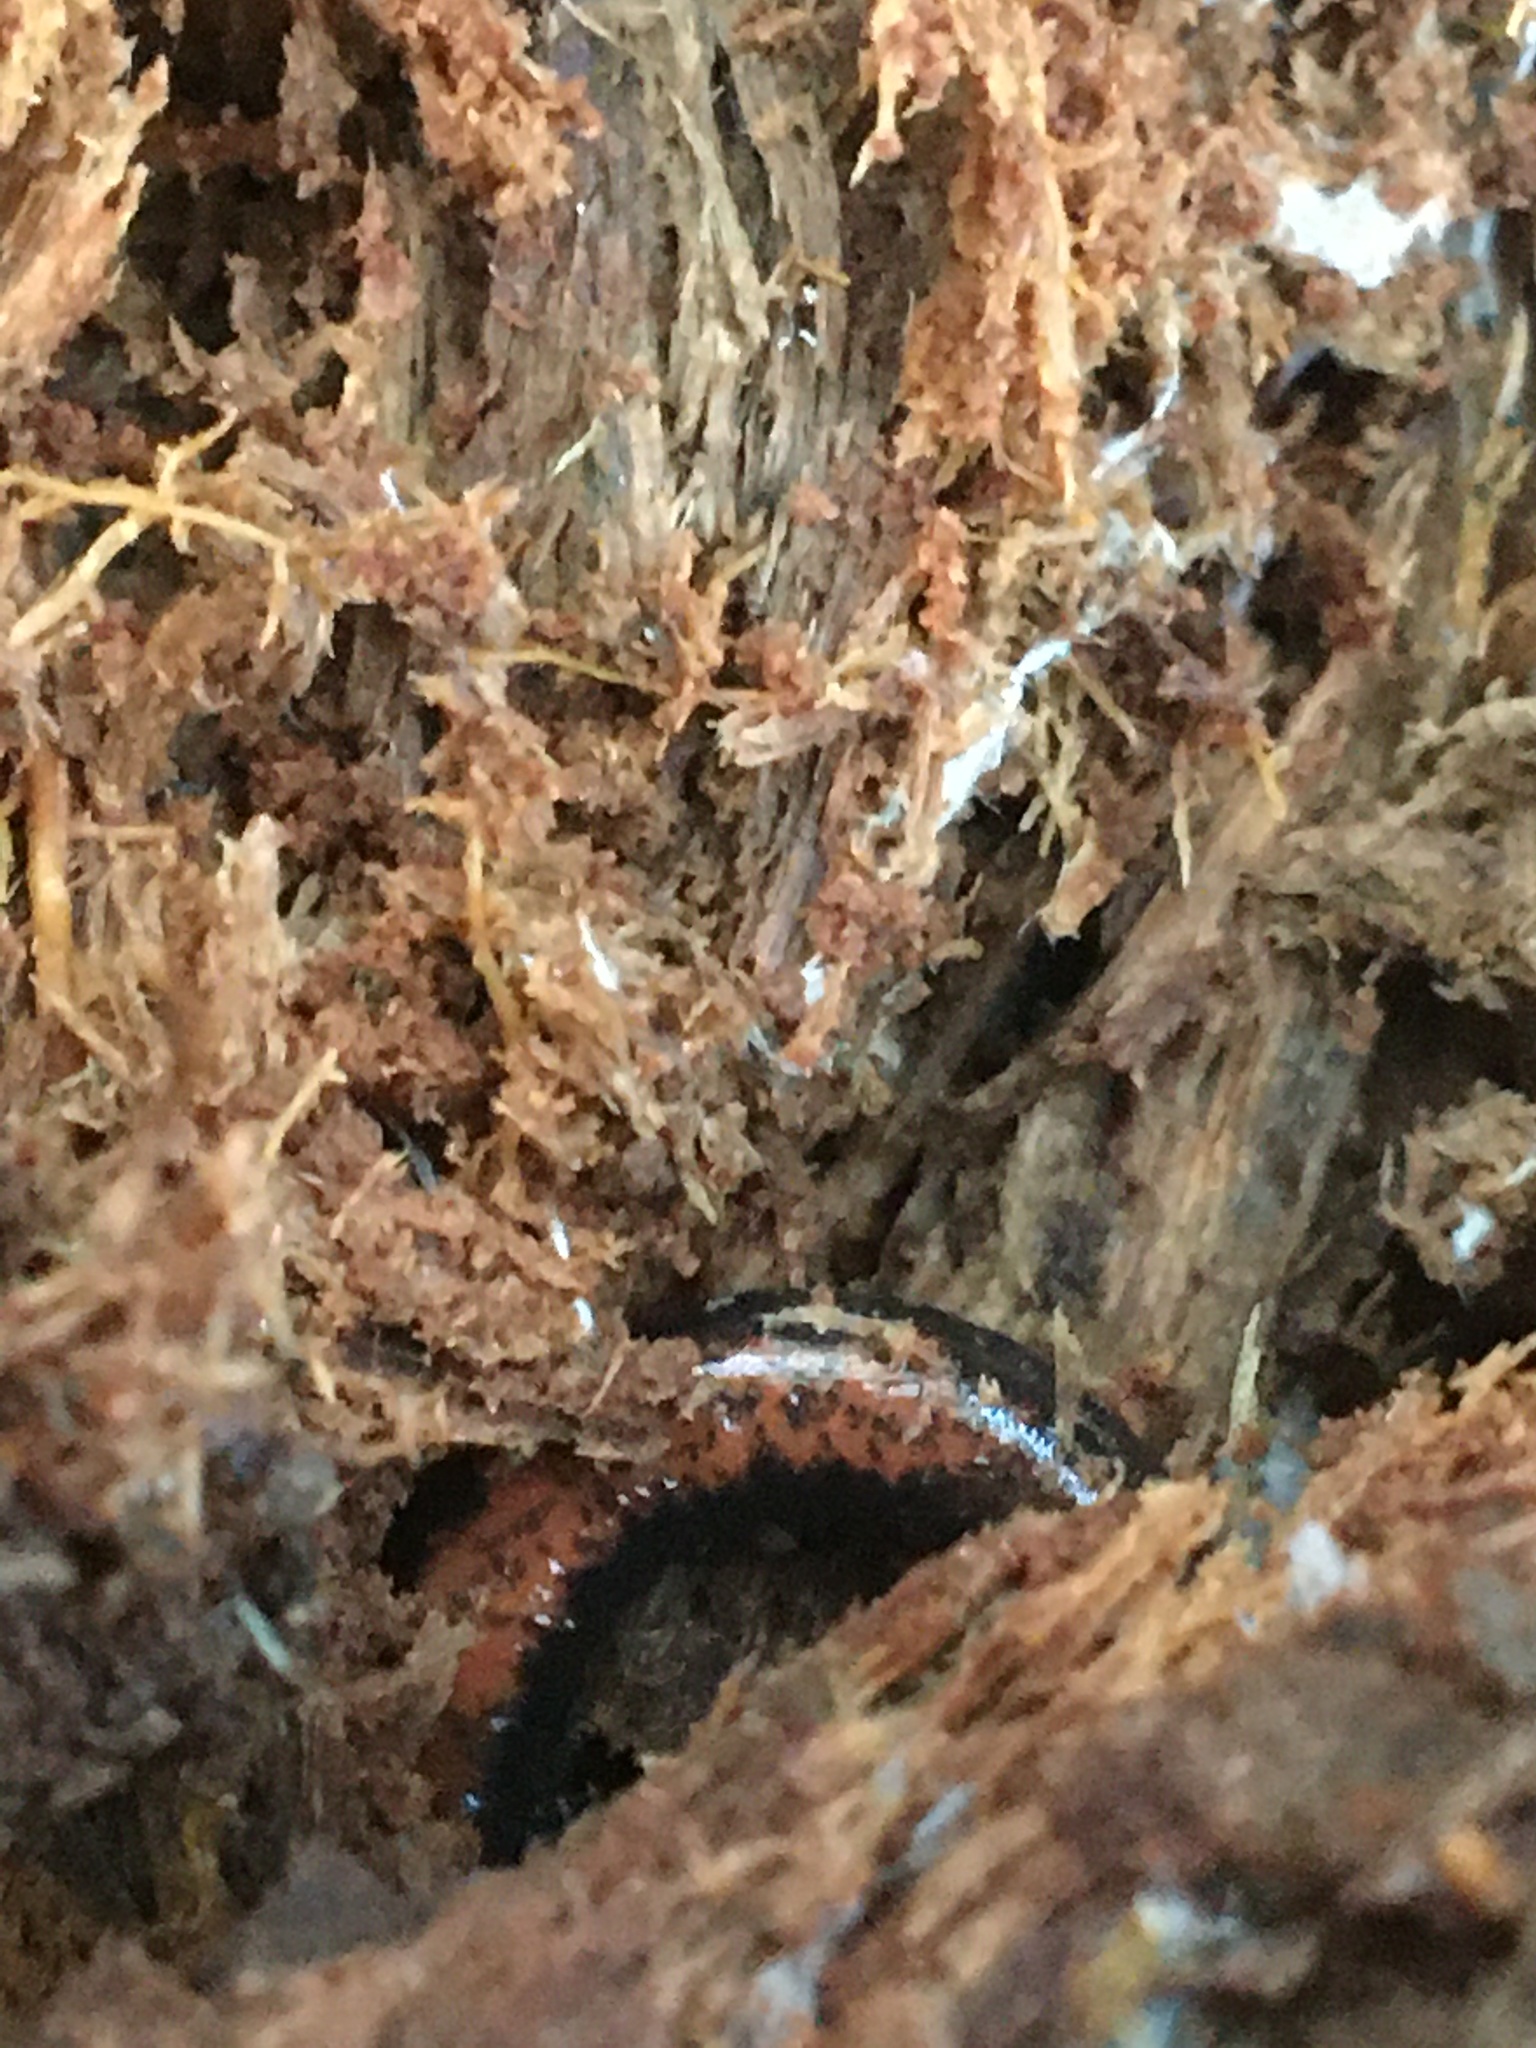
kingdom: Animalia
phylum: Chordata
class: Amphibia
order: Caudata
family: Plethodontidae
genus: Plethodon
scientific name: Plethodon cinereus
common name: Redback salamander
